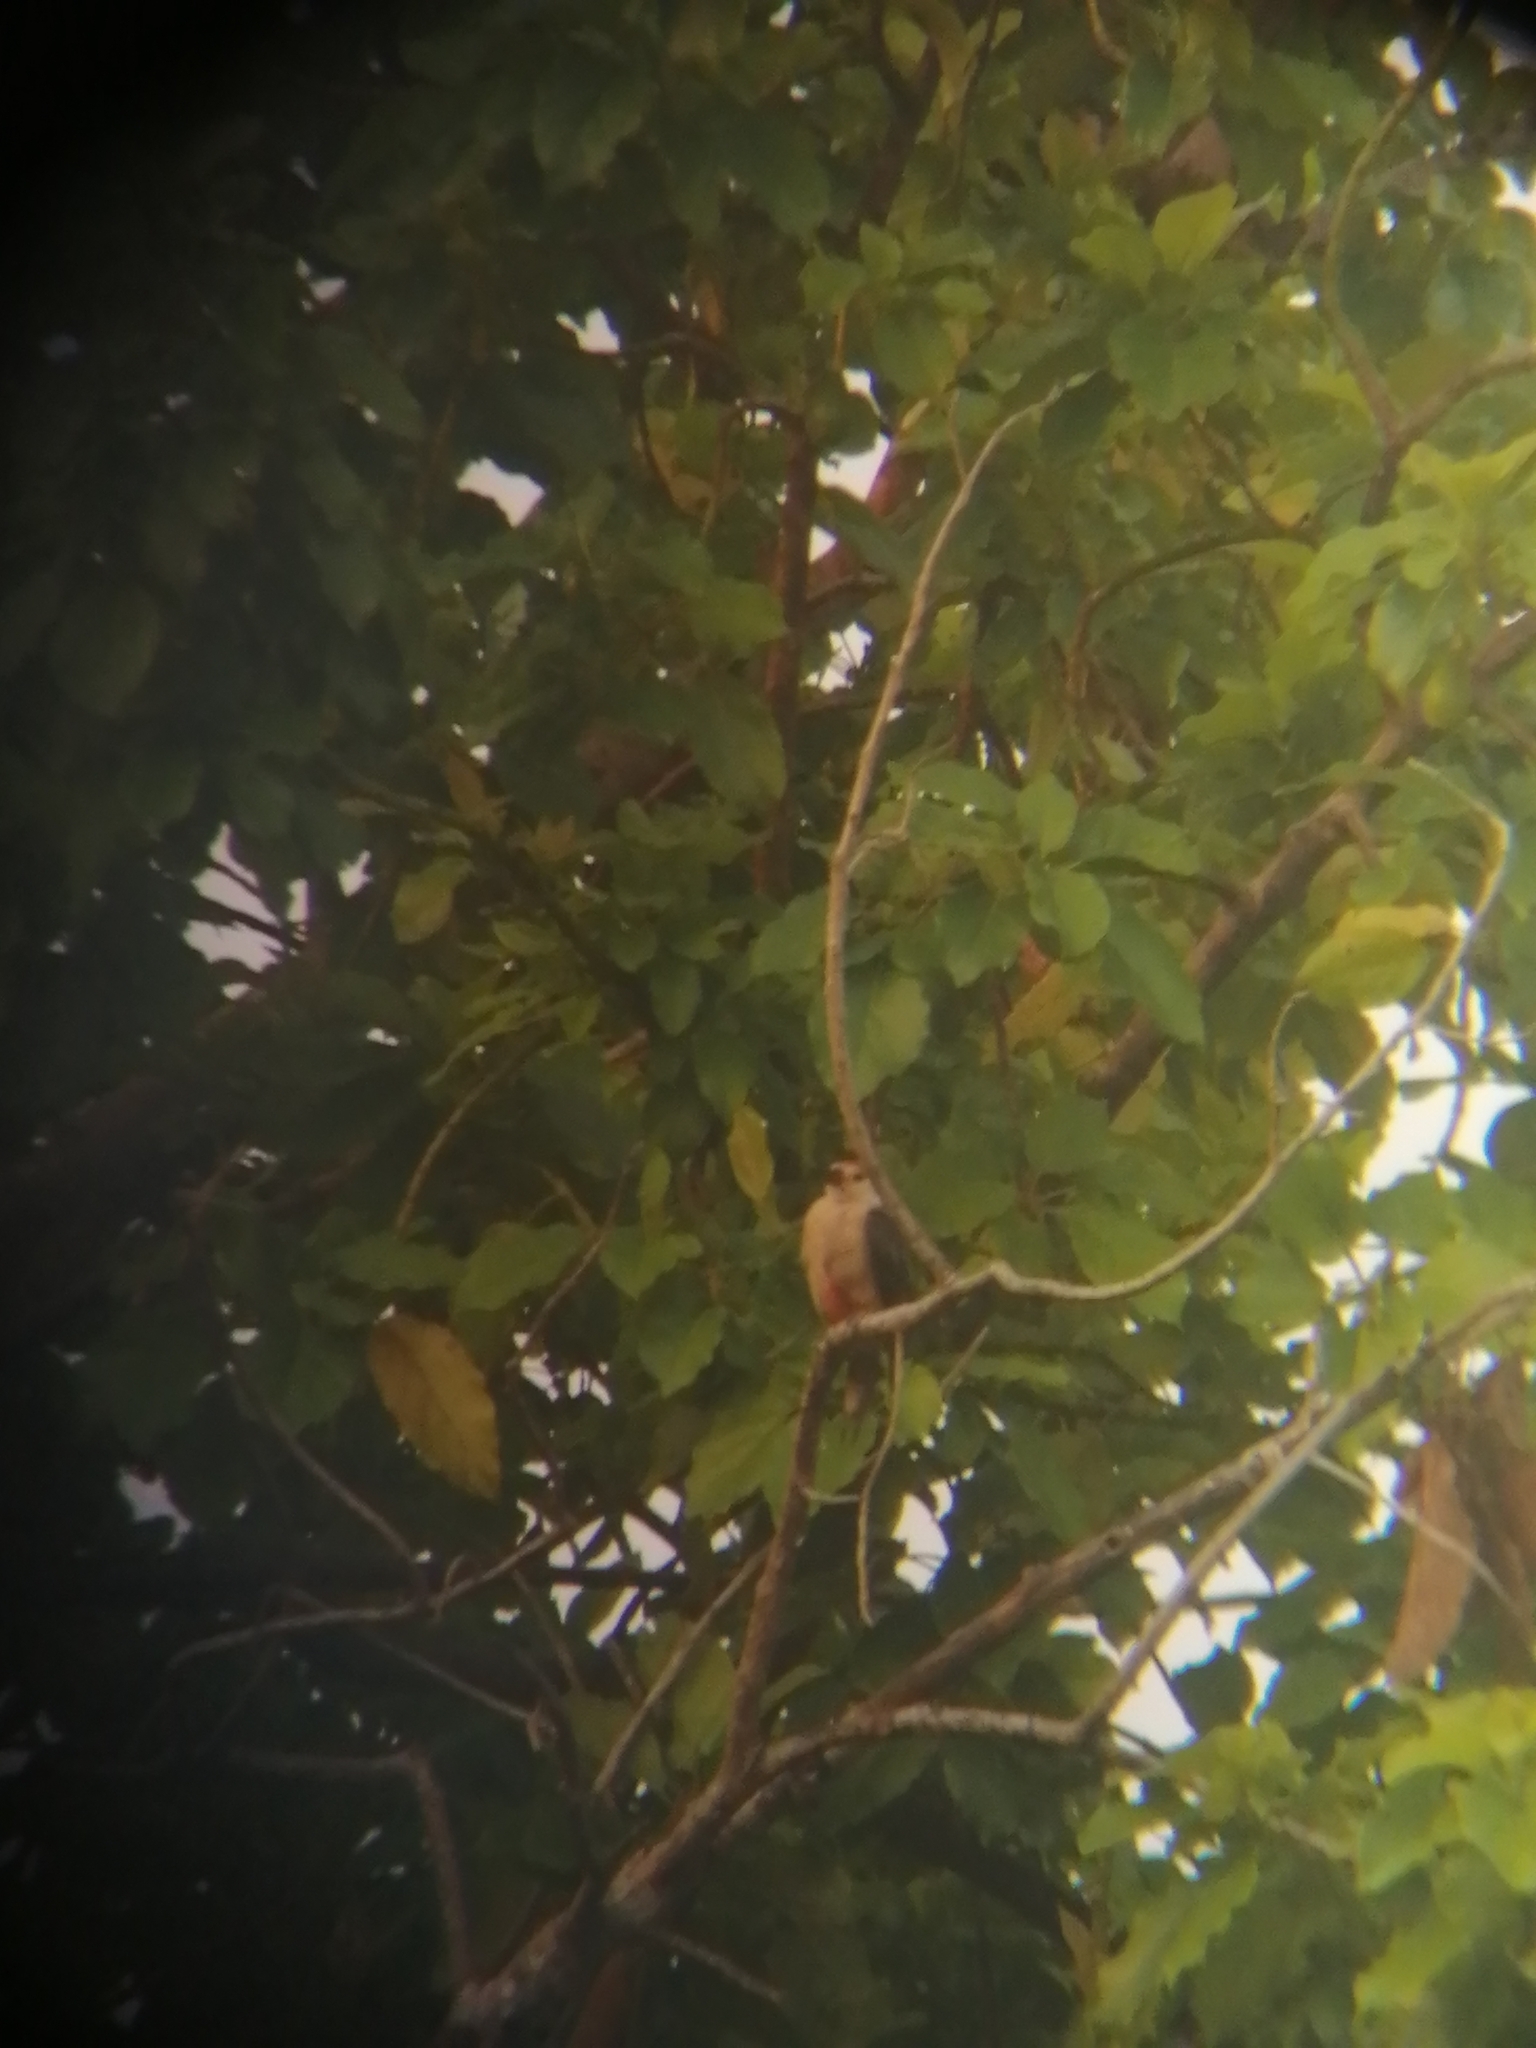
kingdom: Animalia
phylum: Chordata
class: Aves
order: Piciformes
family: Picidae
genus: Melanerpes
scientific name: Melanerpes aurifrons
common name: Golden-fronted woodpecker
